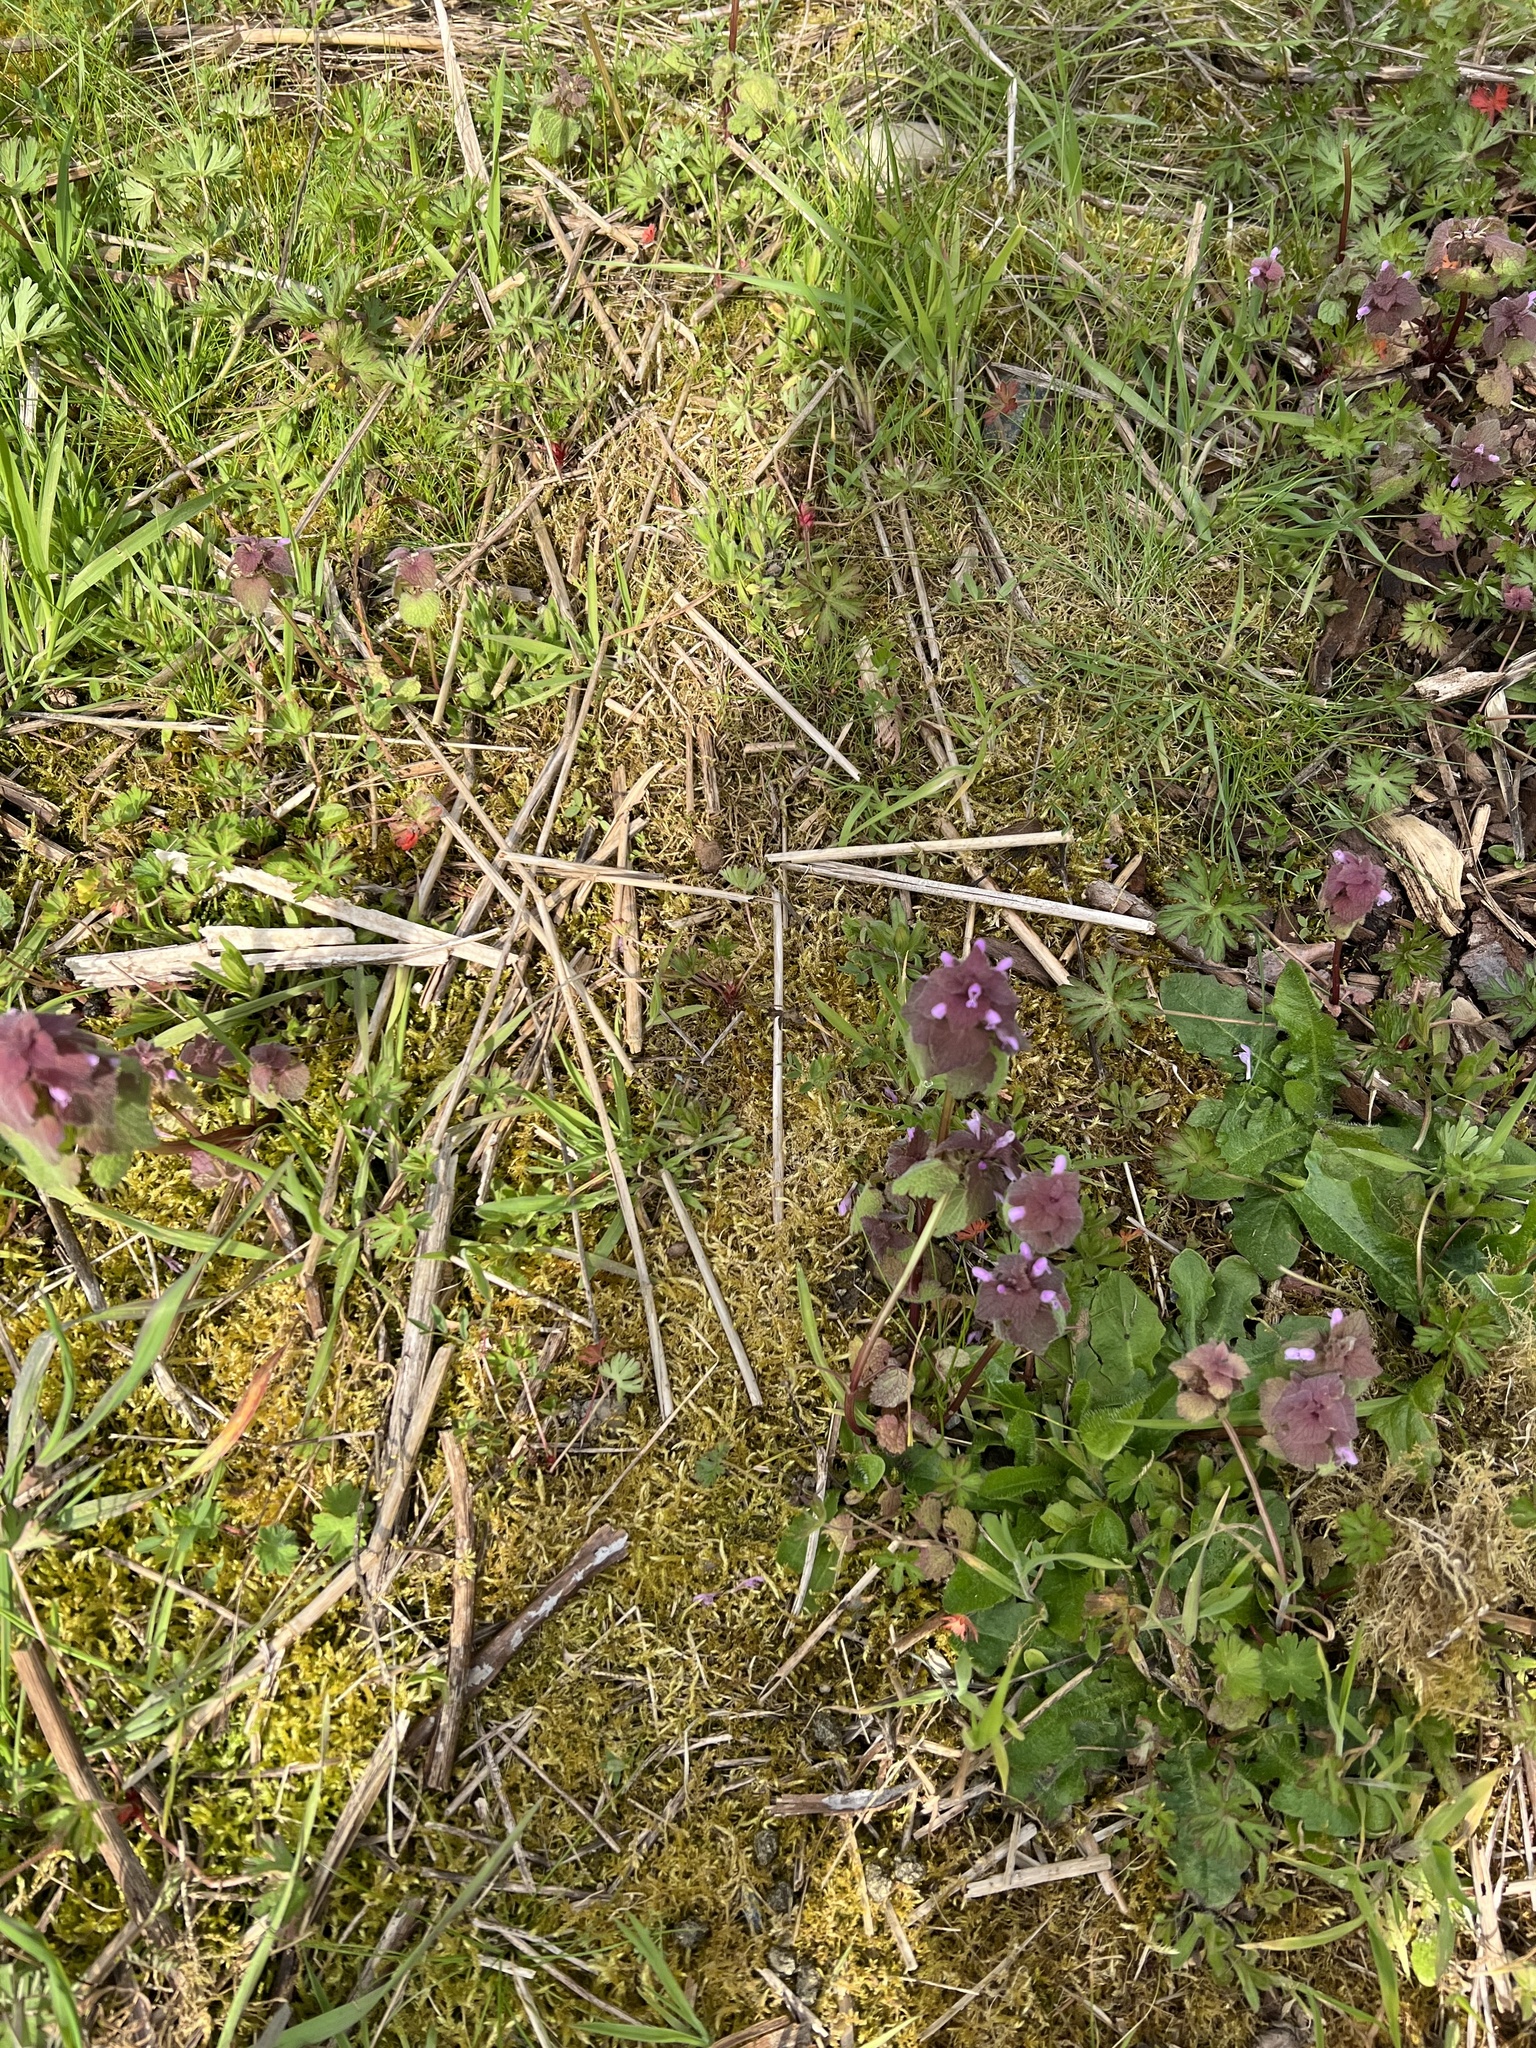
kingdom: Plantae
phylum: Tracheophyta
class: Magnoliopsida
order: Lamiales
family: Lamiaceae
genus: Lamium
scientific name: Lamium purpureum
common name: Red dead-nettle
